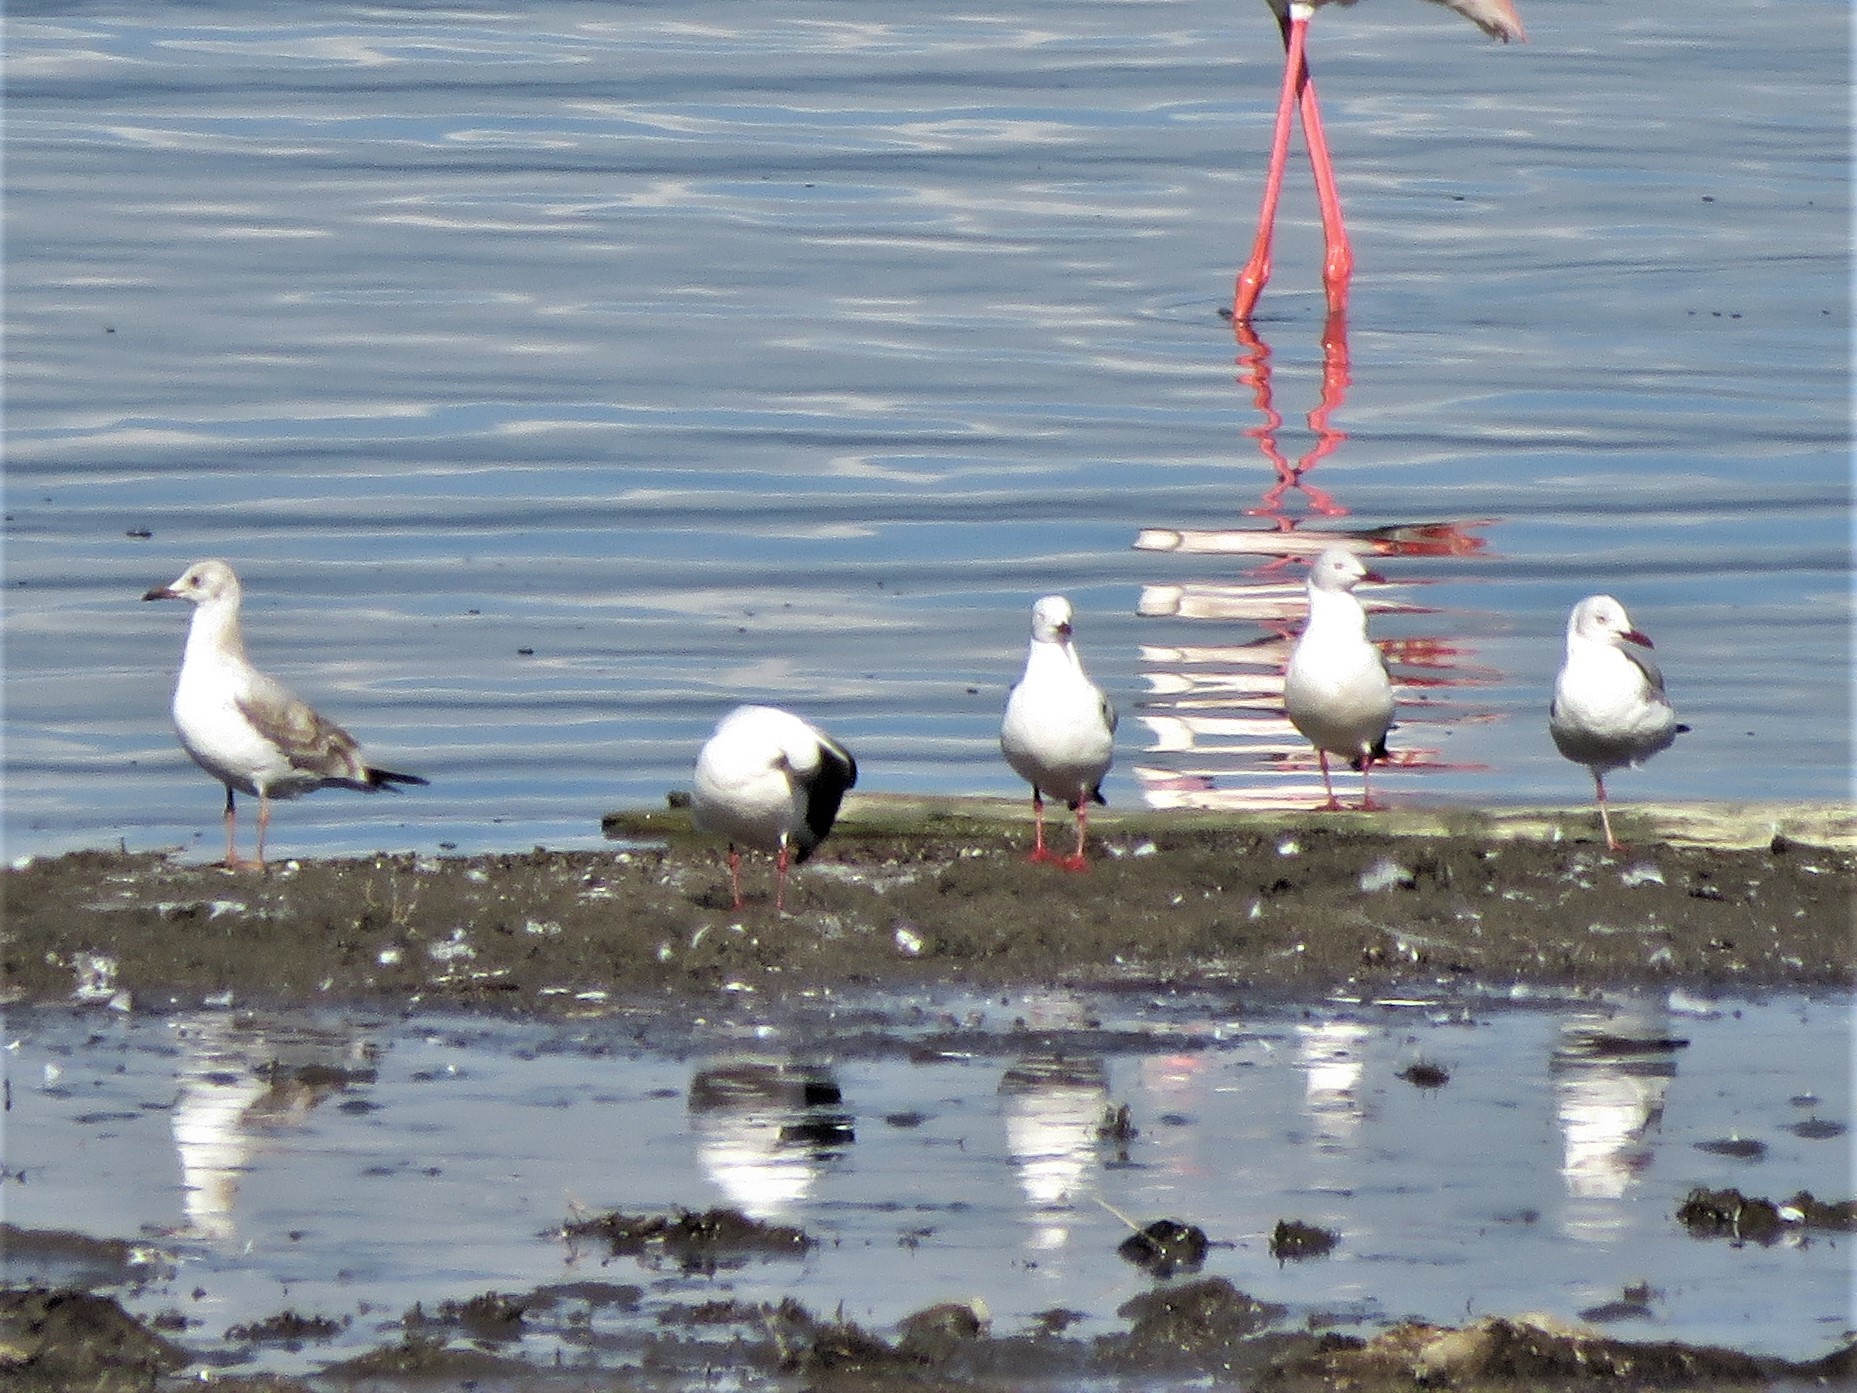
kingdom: Animalia
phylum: Chordata
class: Aves
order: Charadriiformes
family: Laridae
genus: Chroicocephalus
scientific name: Chroicocephalus cirrocephalus
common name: Grey-headed gull
